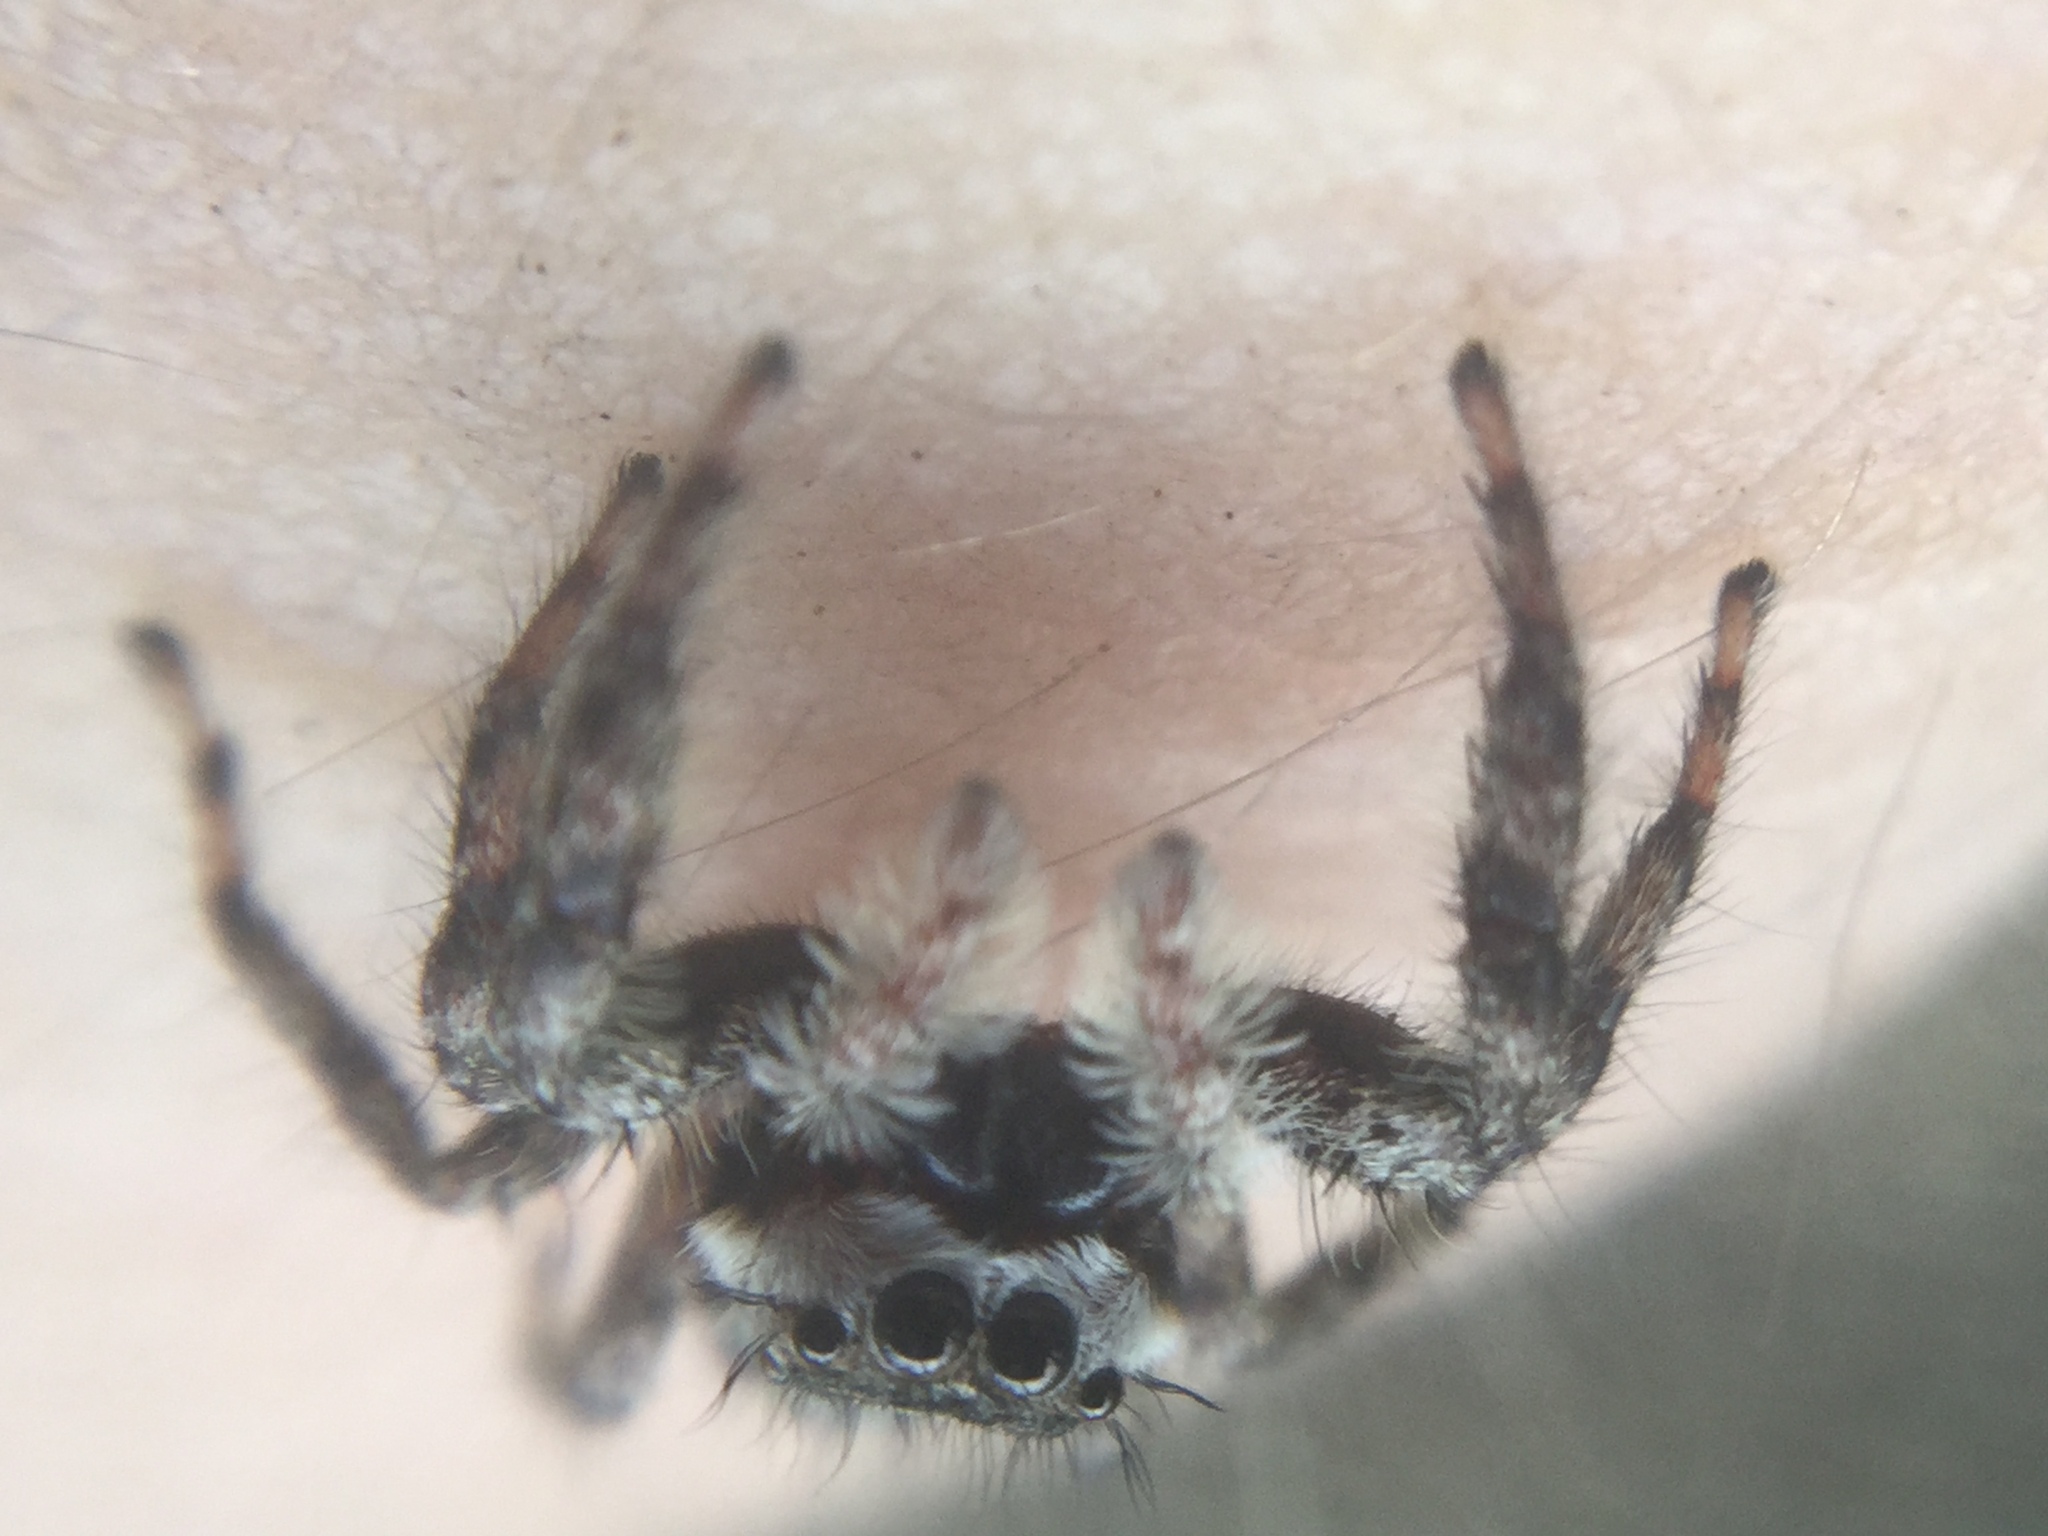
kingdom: Animalia
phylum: Arthropoda
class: Arachnida
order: Araneae
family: Salticidae
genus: Platycryptus
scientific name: Platycryptus undatus
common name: Tan jumping spider
